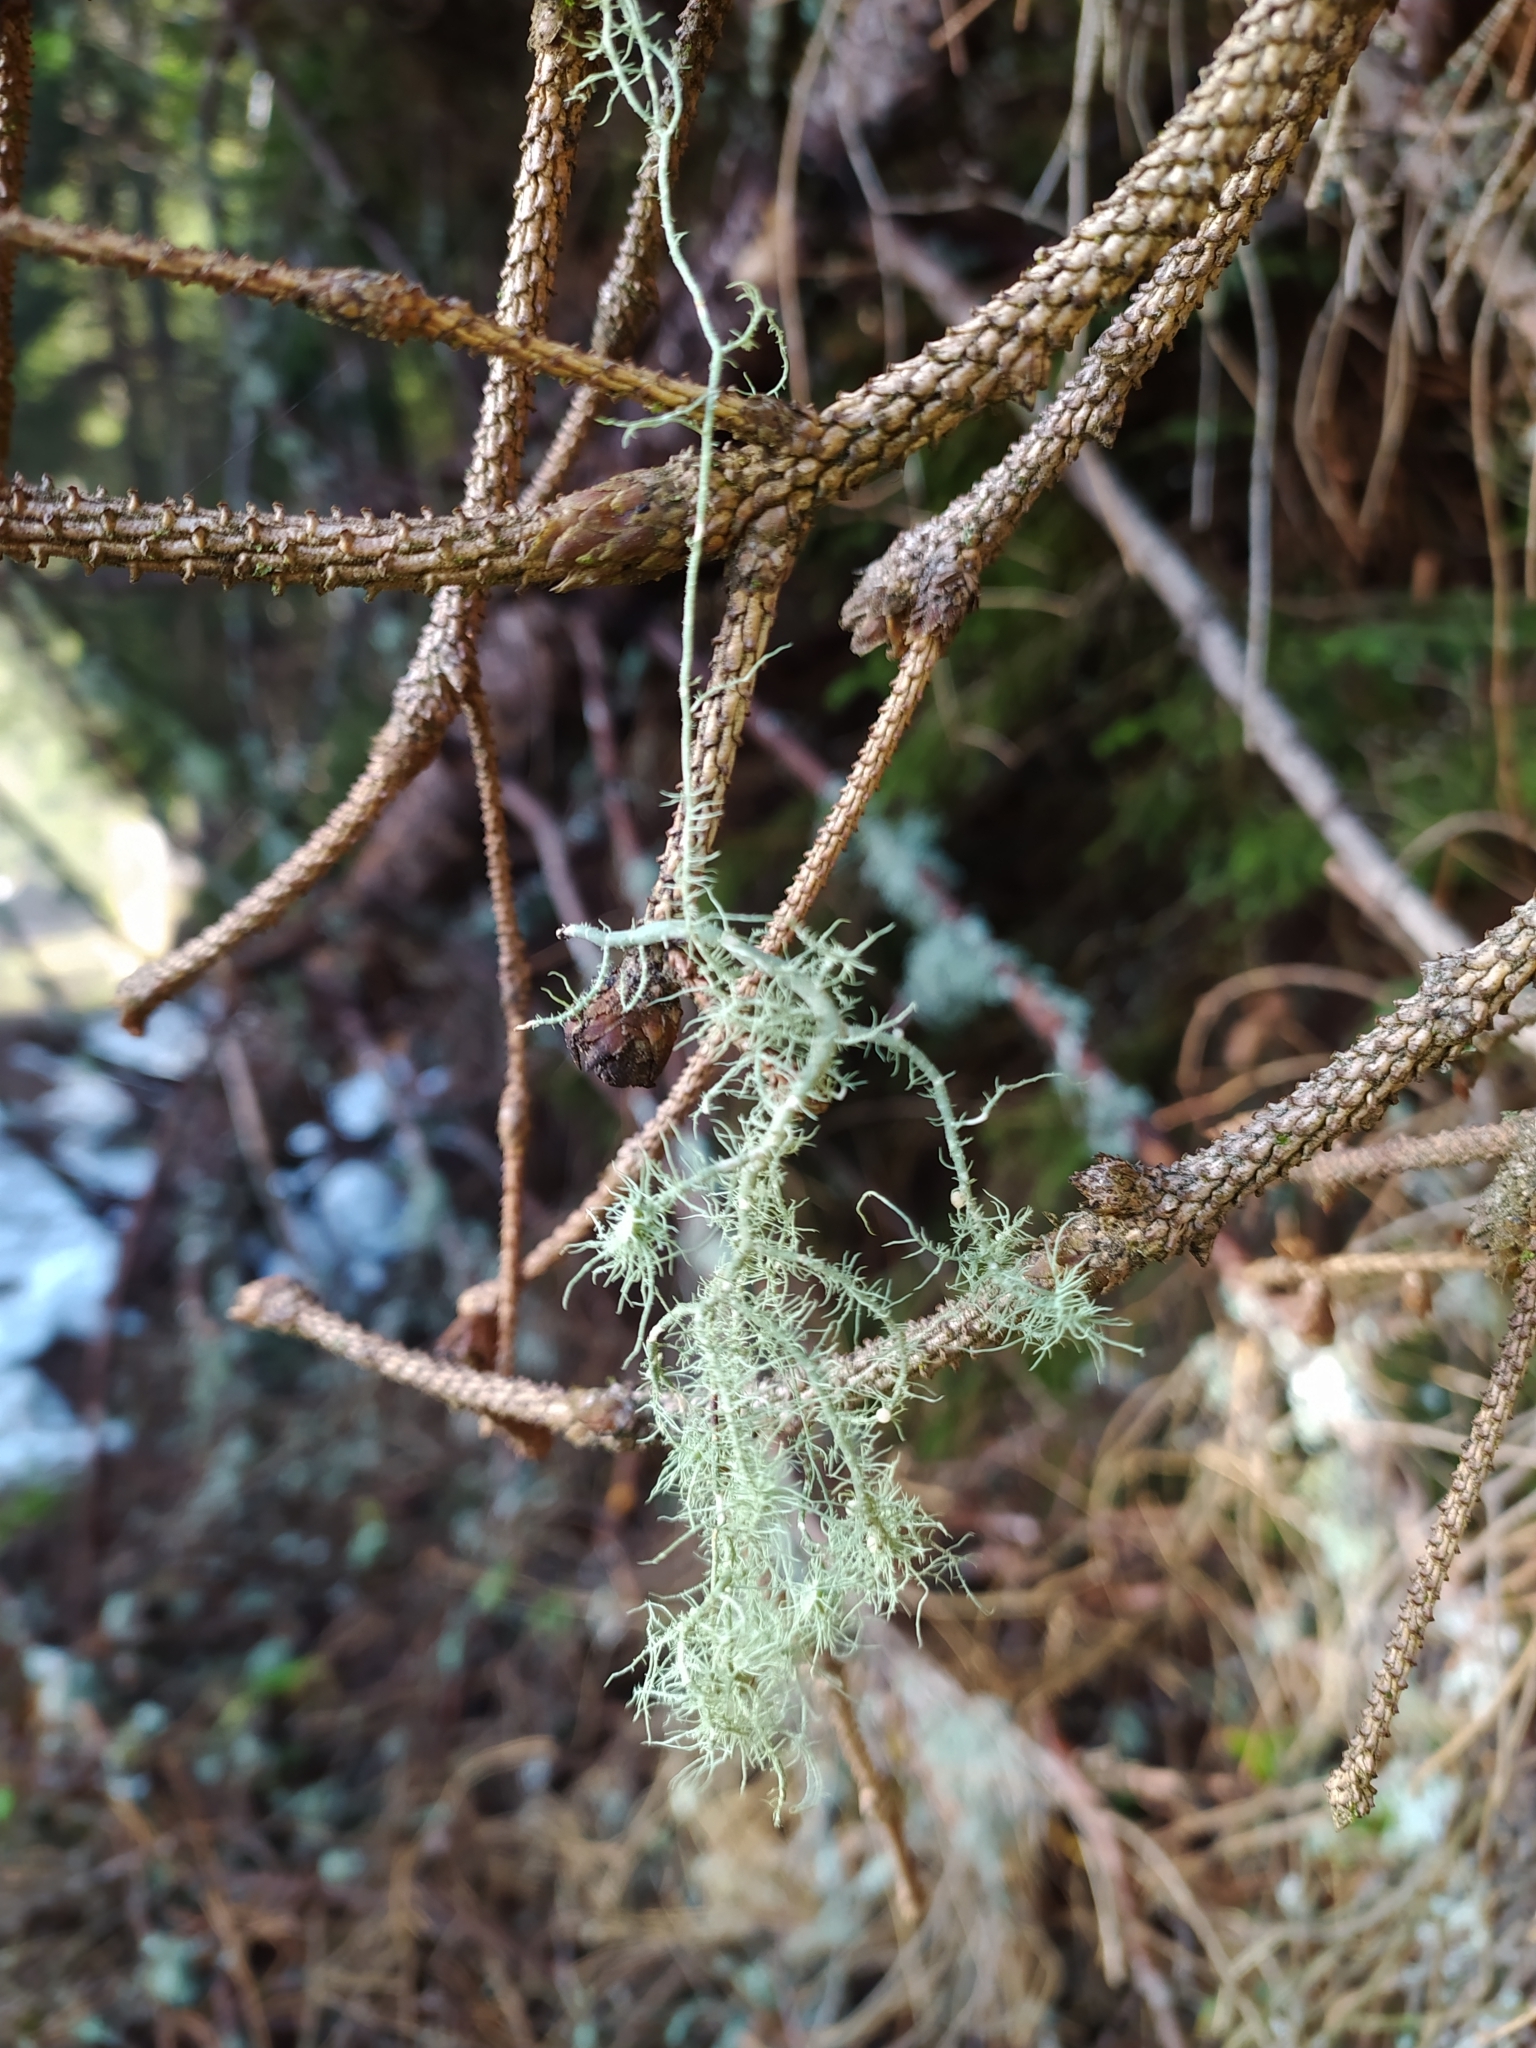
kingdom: Fungi
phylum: Ascomycota
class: Lecanoromycetes
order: Lecanorales
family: Parmeliaceae
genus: Usnea
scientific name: Usnea
